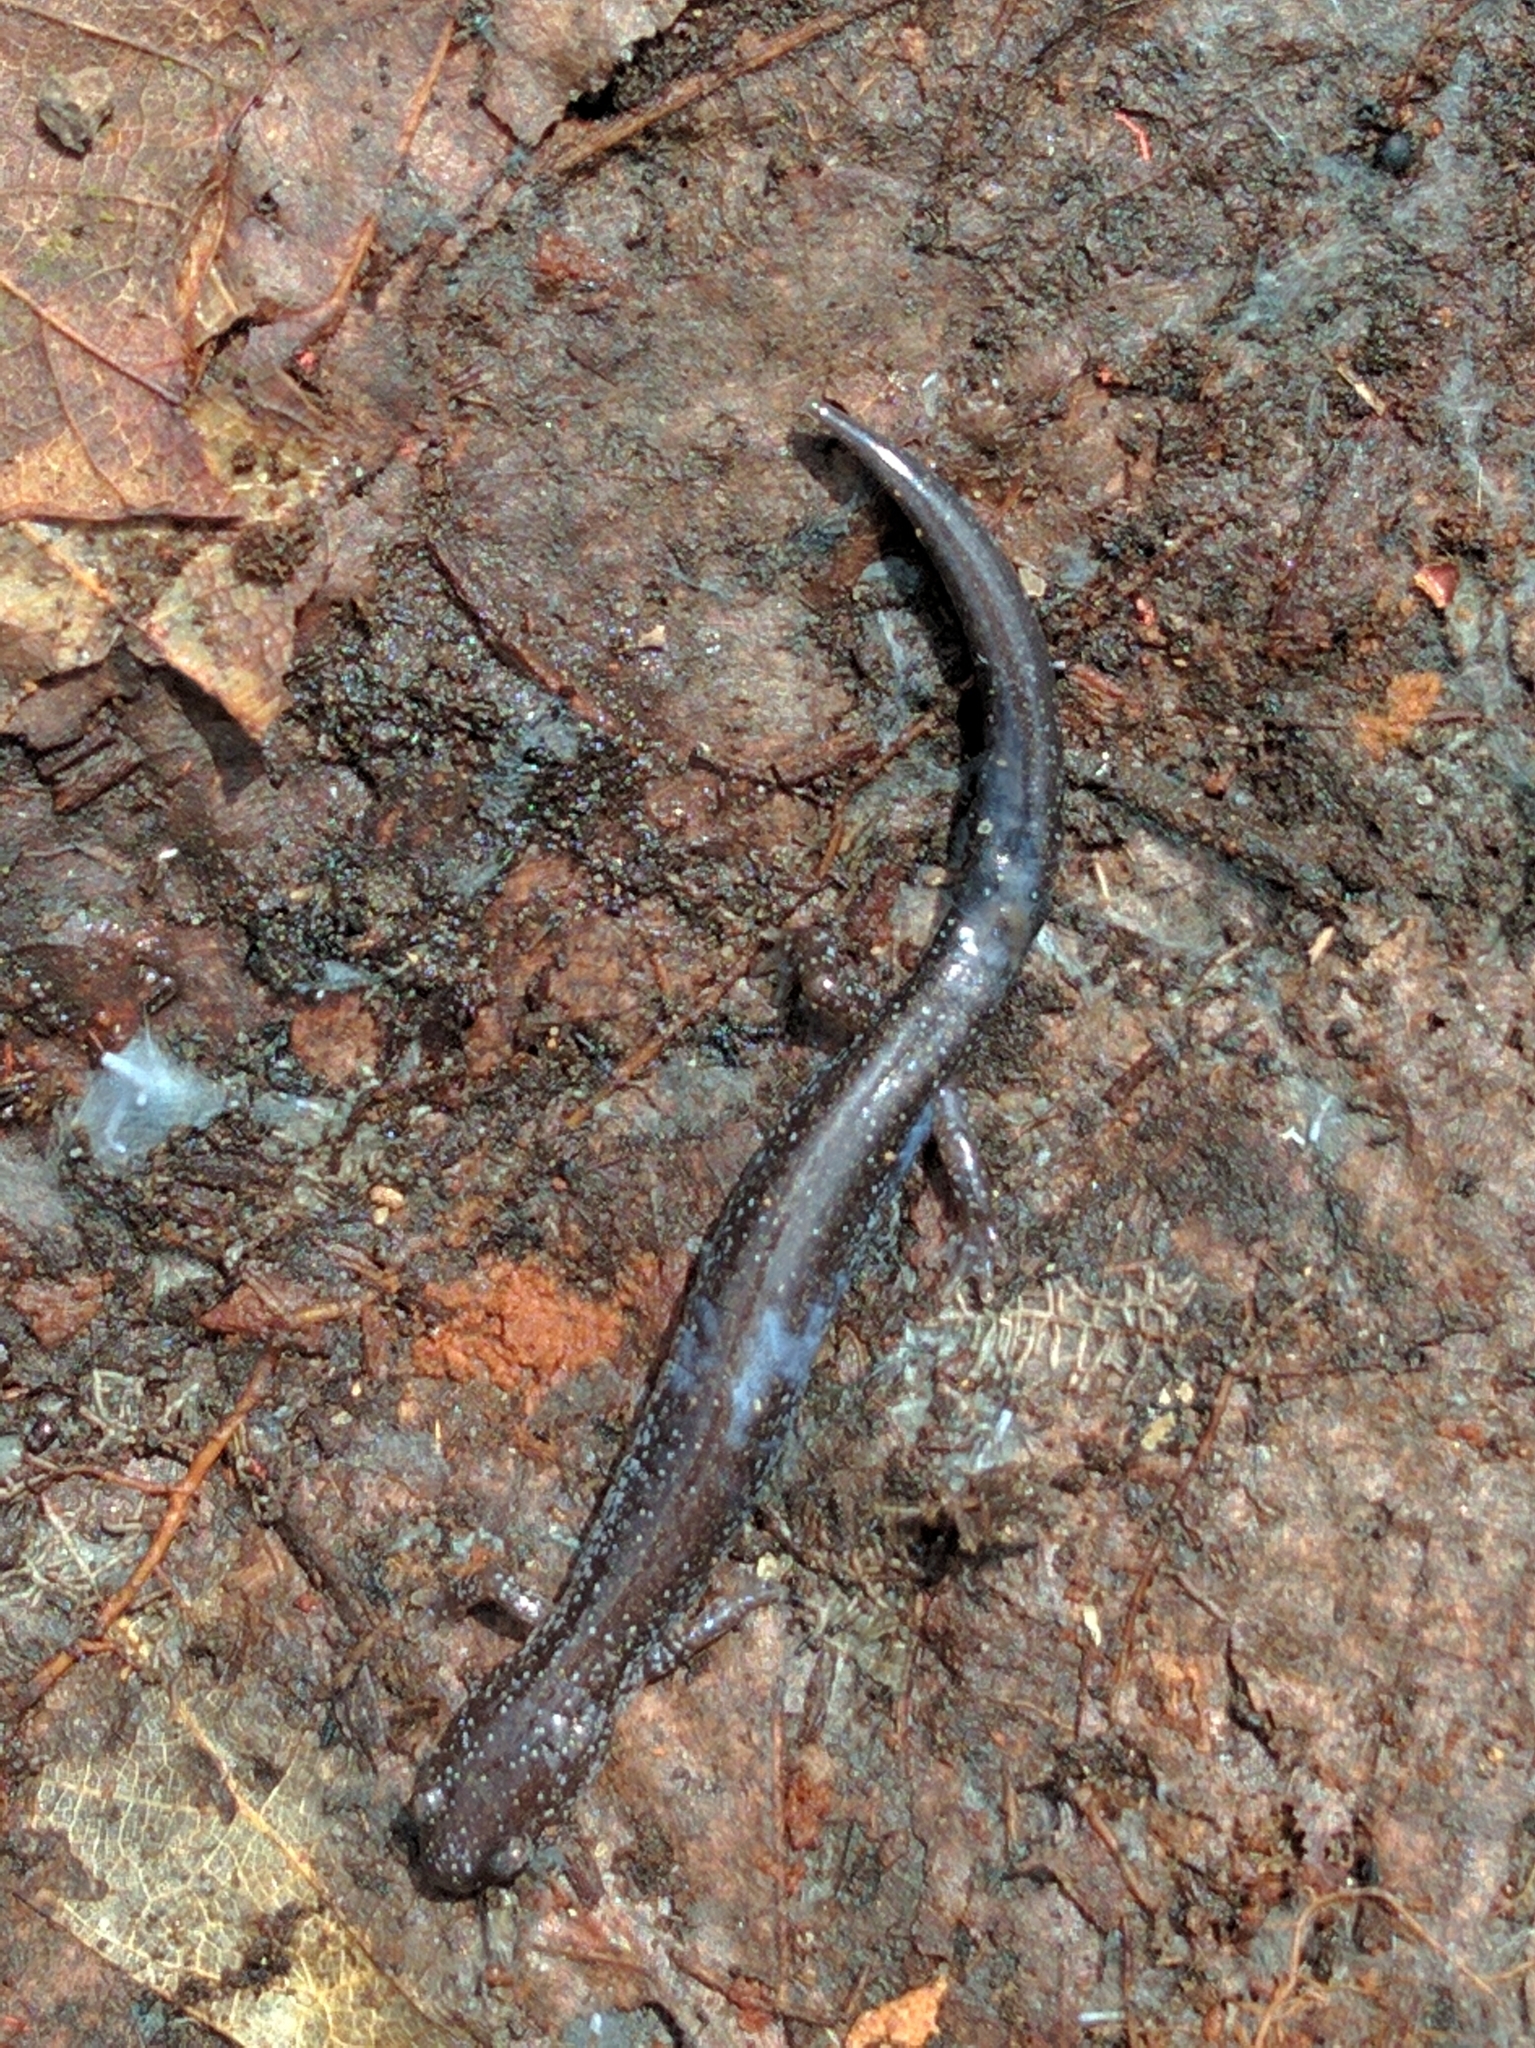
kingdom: Animalia
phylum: Chordata
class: Amphibia
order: Caudata
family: Plethodontidae
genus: Plethodon
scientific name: Plethodon cinereus
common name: Redback salamander
